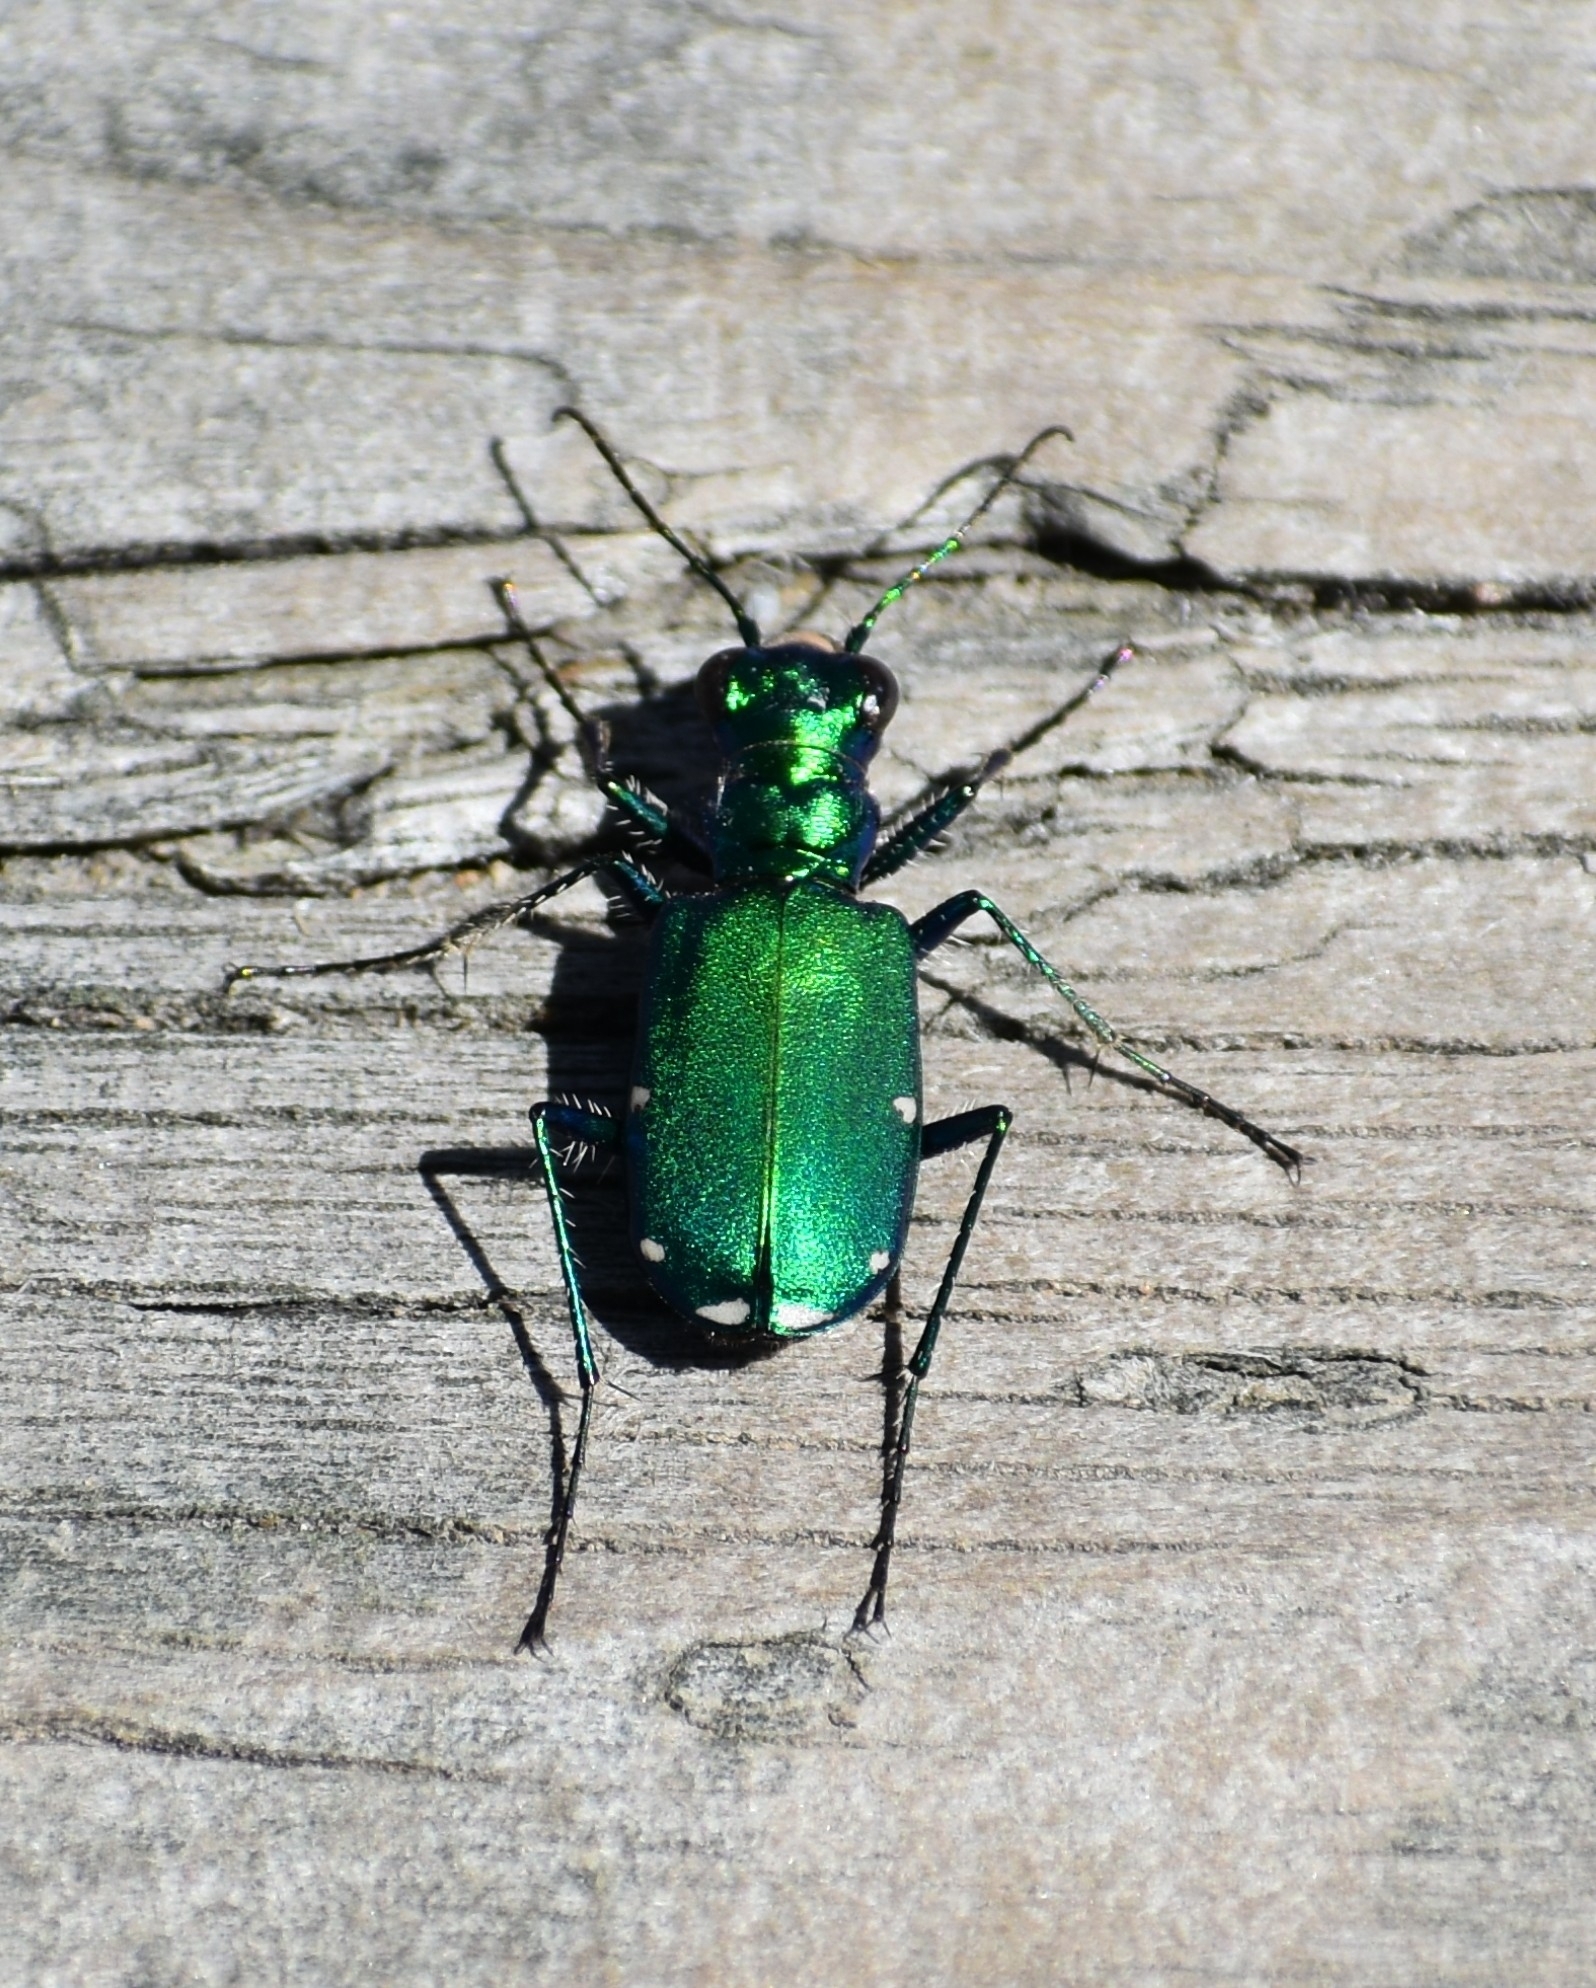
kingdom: Animalia
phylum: Arthropoda
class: Insecta
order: Coleoptera
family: Carabidae
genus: Cicindela
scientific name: Cicindela sexguttata
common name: Six-spotted tiger beetle
